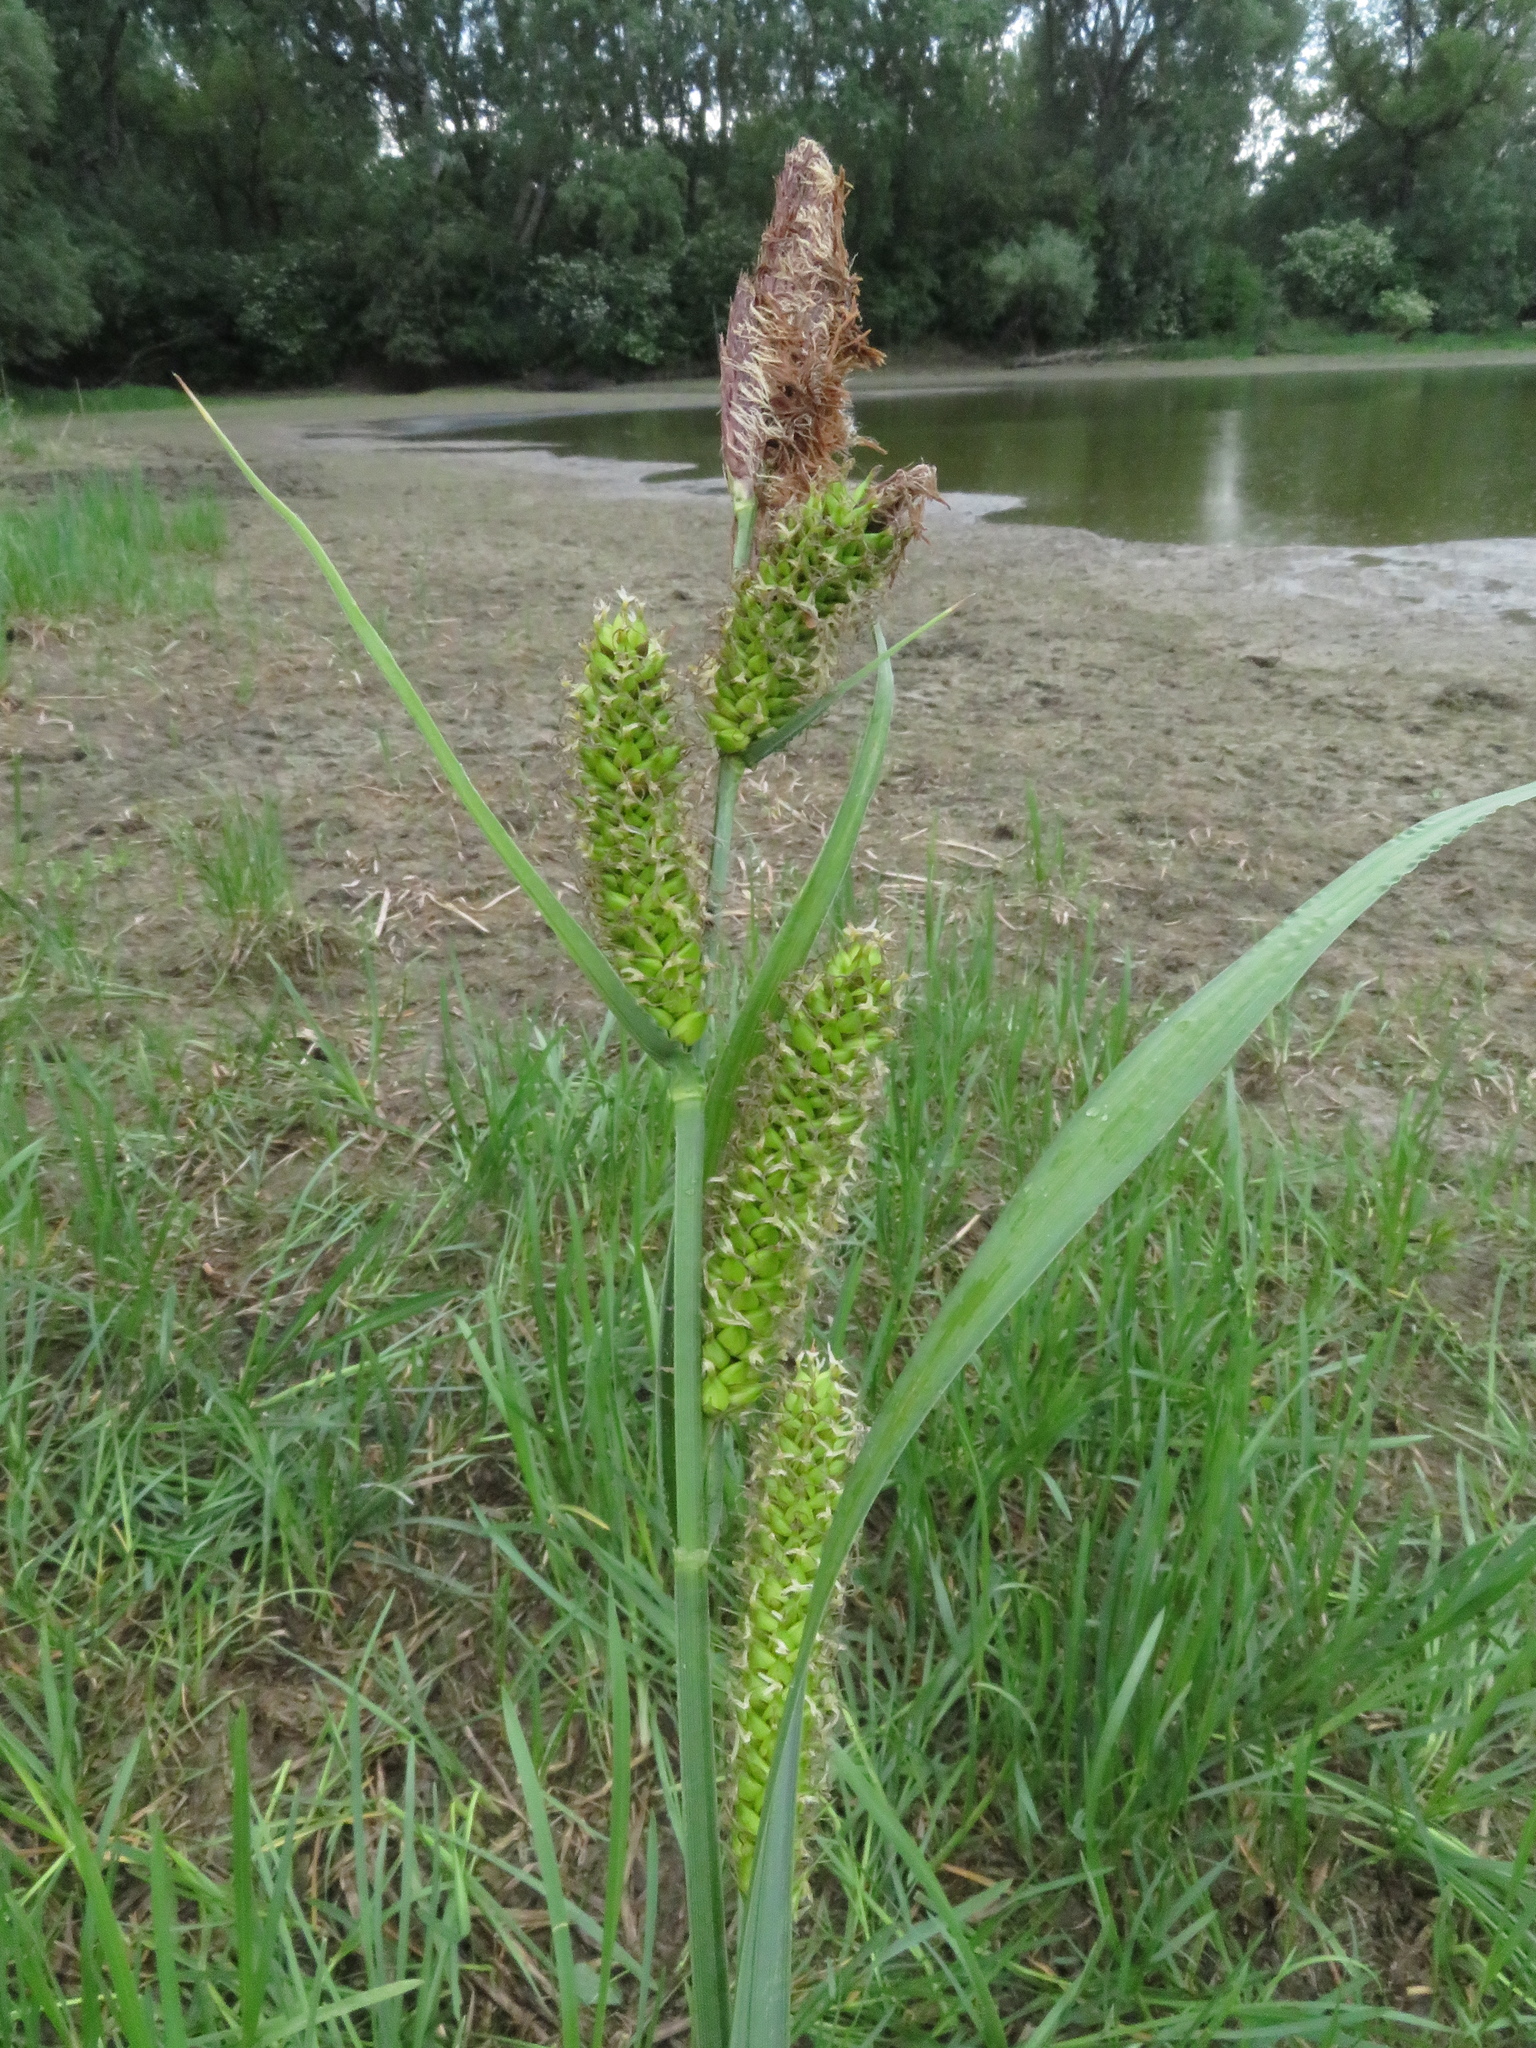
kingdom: Plantae
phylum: Tracheophyta
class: Liliopsida
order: Poales
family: Cyperaceae
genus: Carex
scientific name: Carex riparia
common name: Greater pond-sedge
